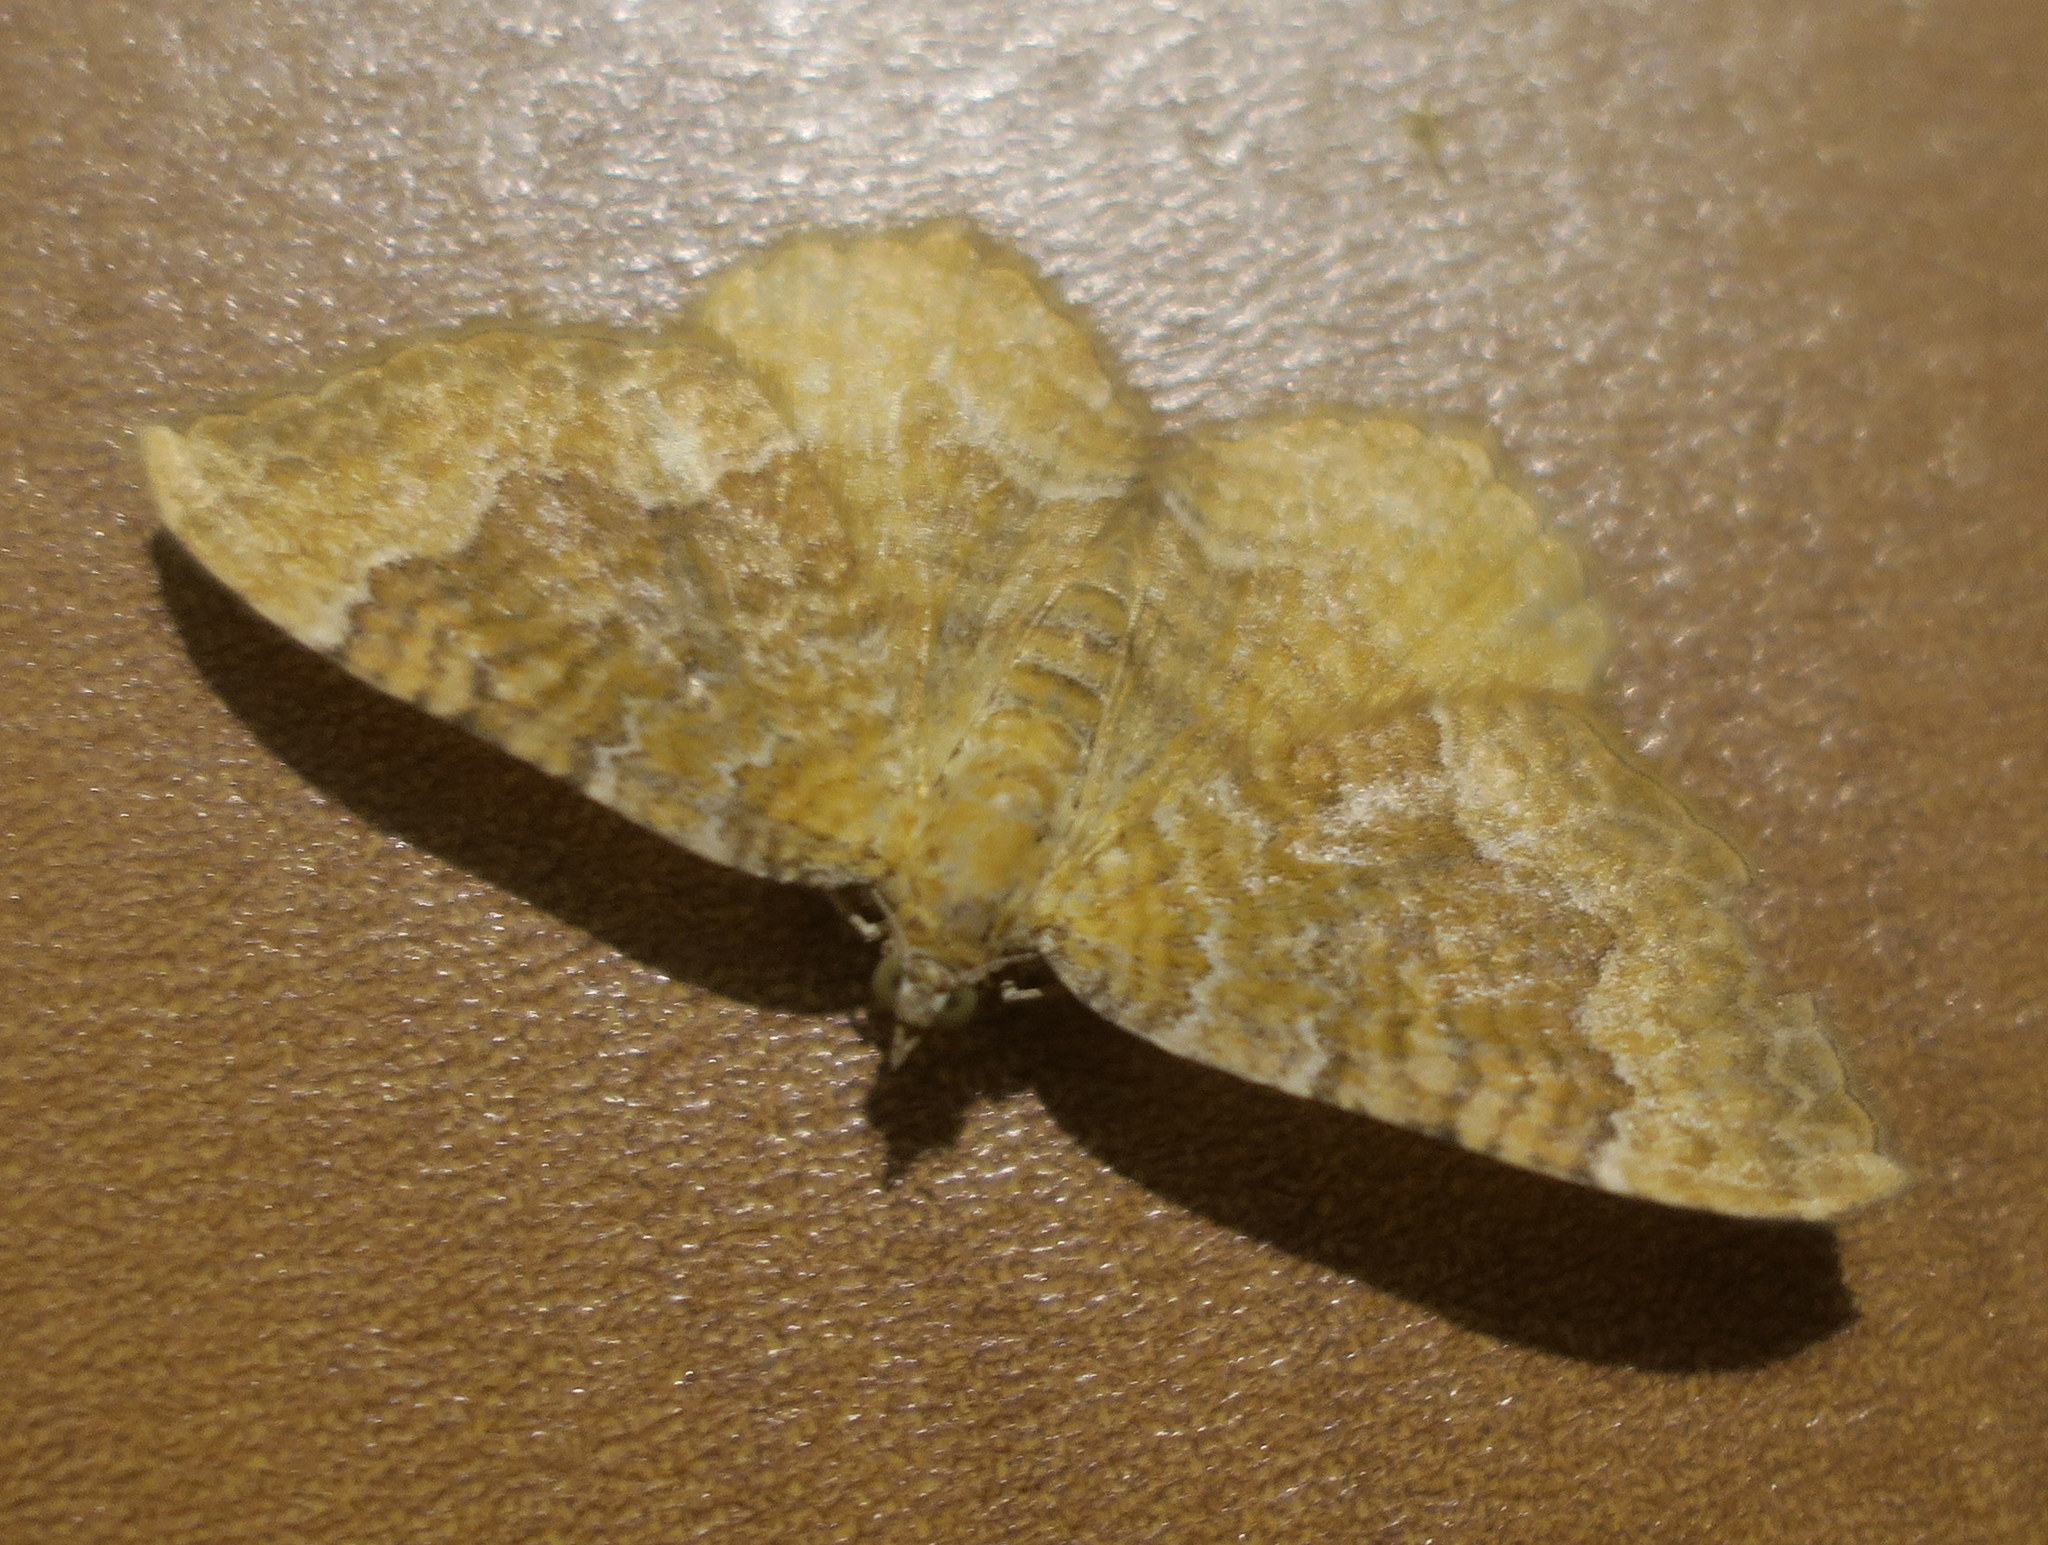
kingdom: Animalia
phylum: Arthropoda
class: Insecta
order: Lepidoptera
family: Geometridae
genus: Camptogramma
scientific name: Camptogramma bilineata
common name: Yellow shell
